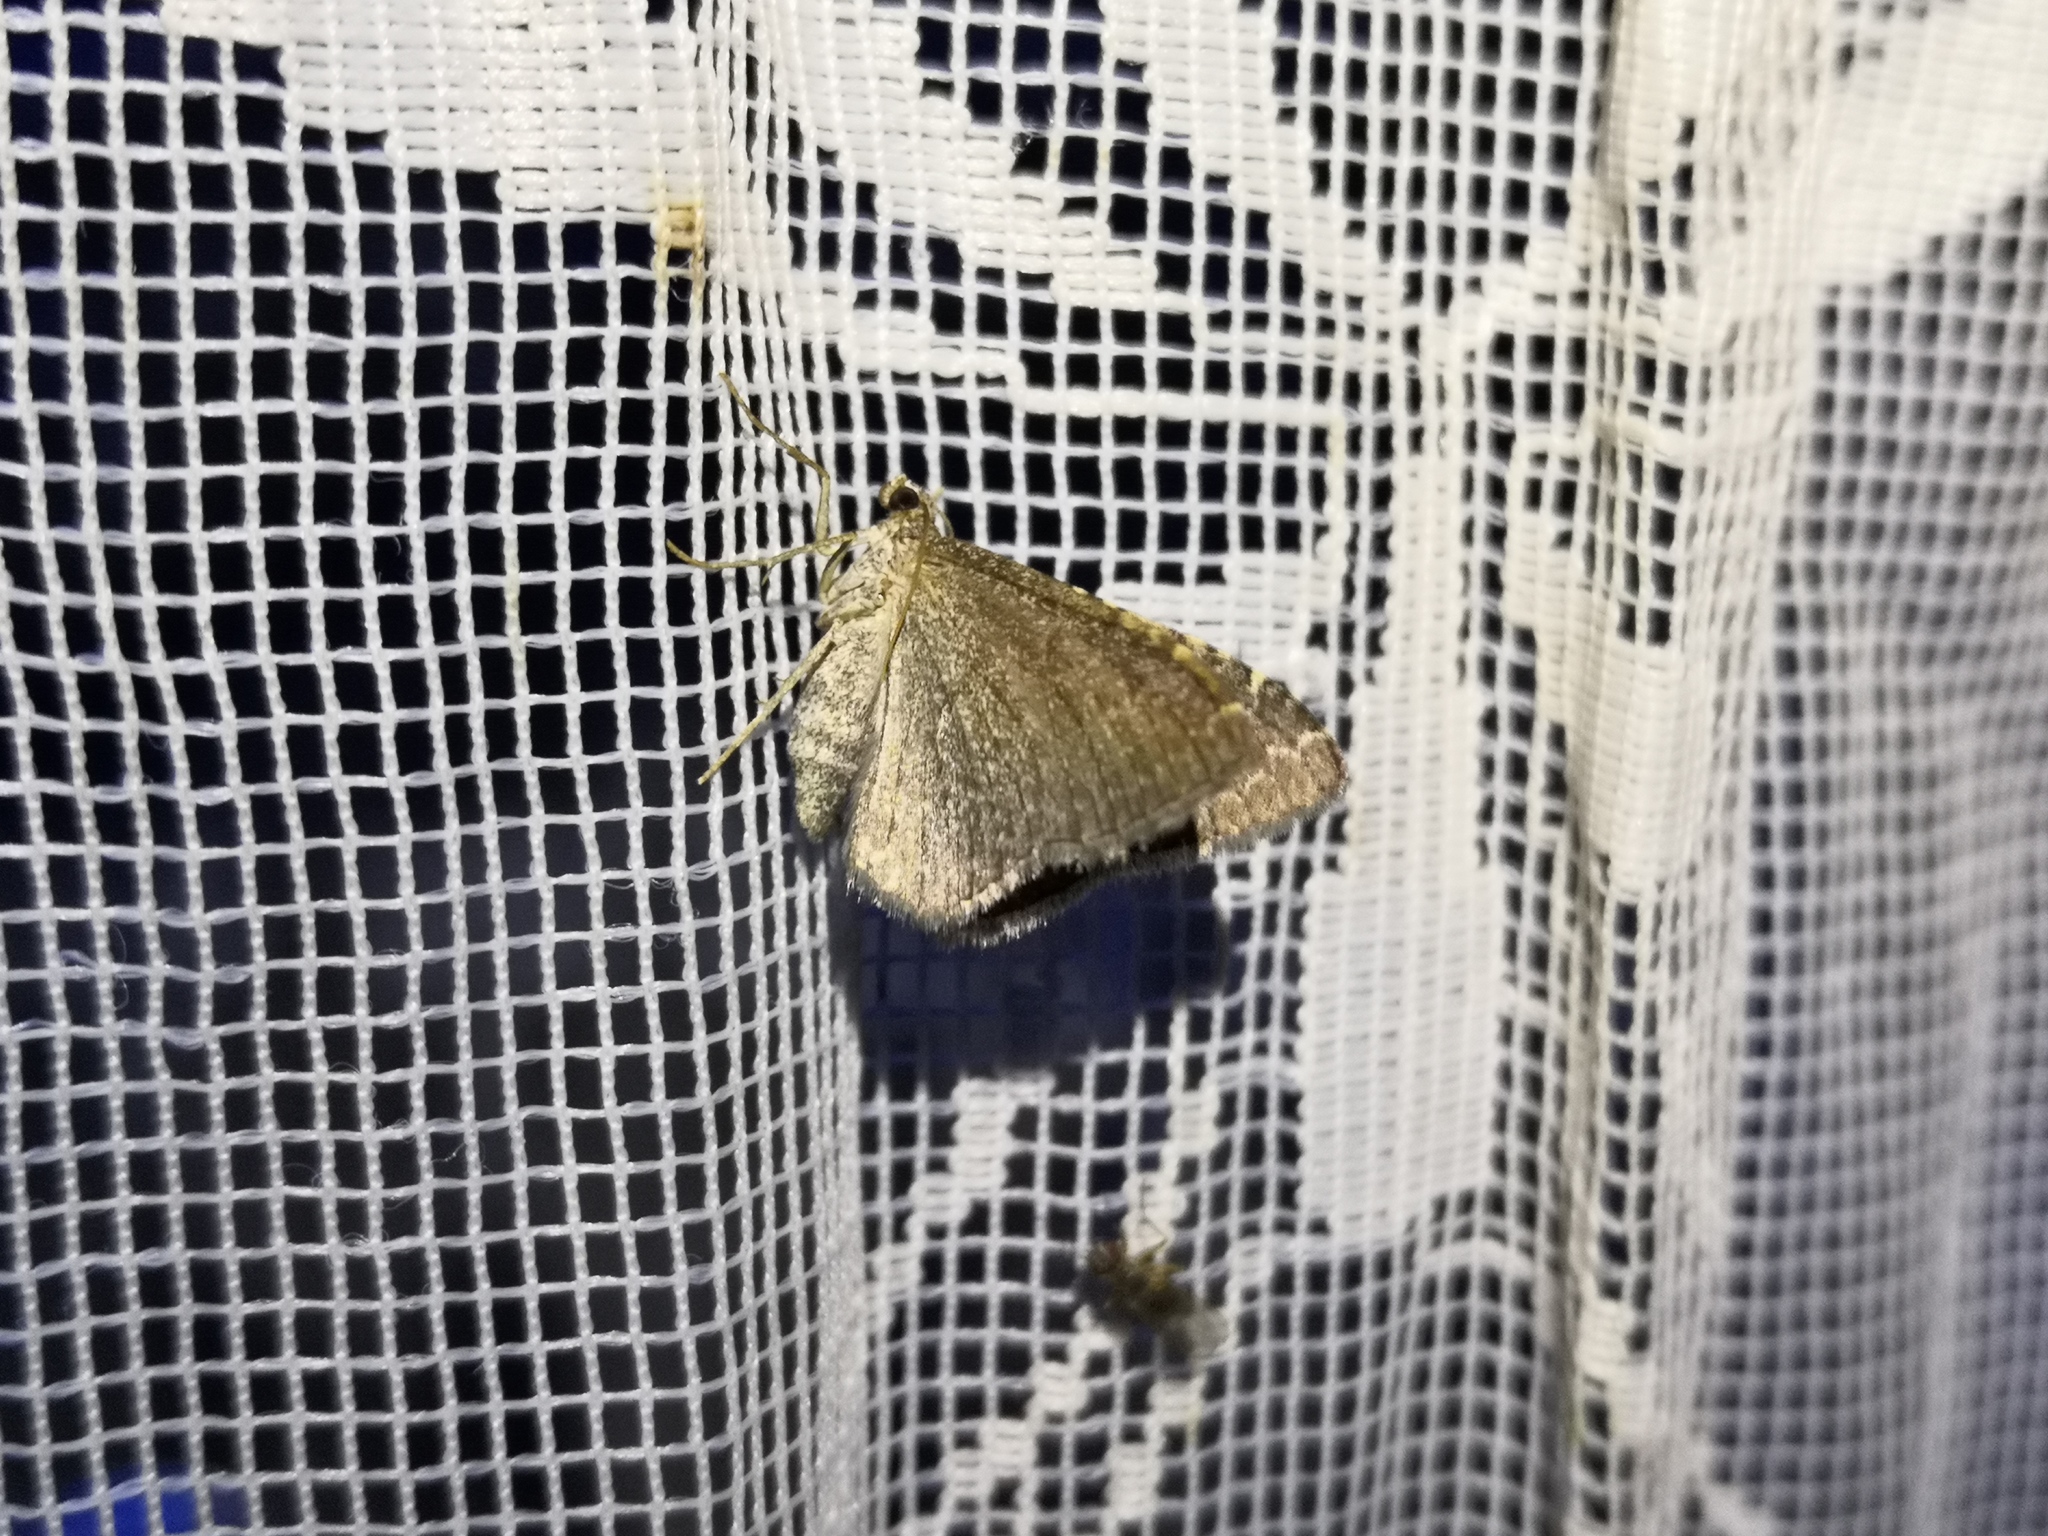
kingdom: Animalia
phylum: Arthropoda
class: Insecta
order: Lepidoptera
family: Geometridae
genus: Cataclysme
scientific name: Cataclysme riguata
